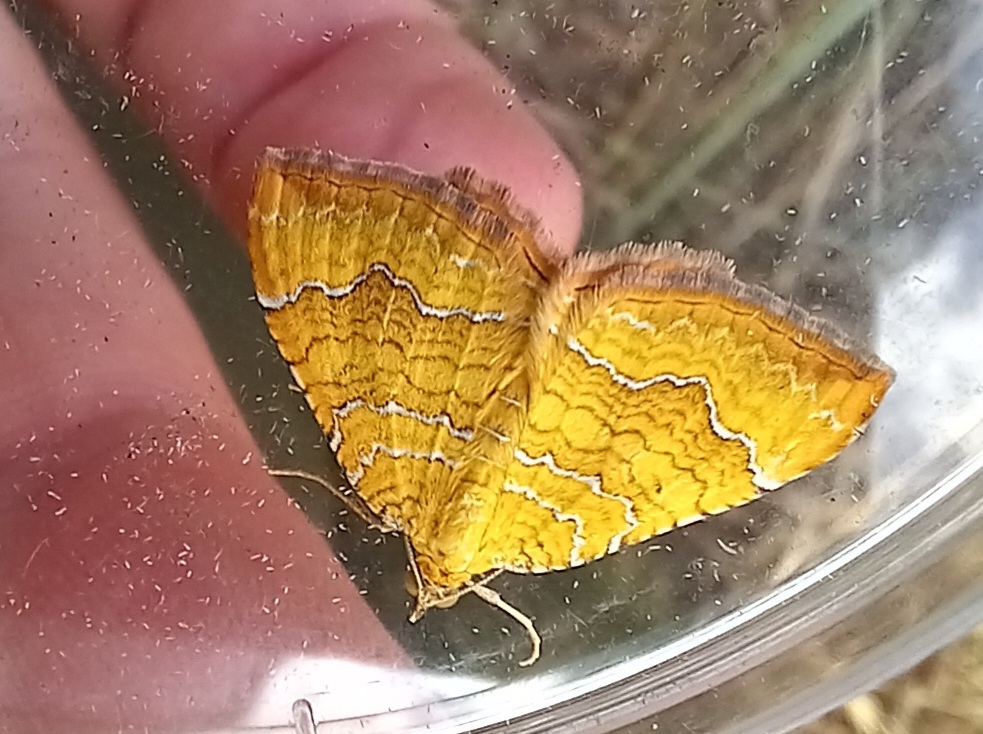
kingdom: Animalia
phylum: Arthropoda
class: Insecta
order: Lepidoptera
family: Geometridae
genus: Camptogramma
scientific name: Camptogramma bilineata
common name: Yellow shell
